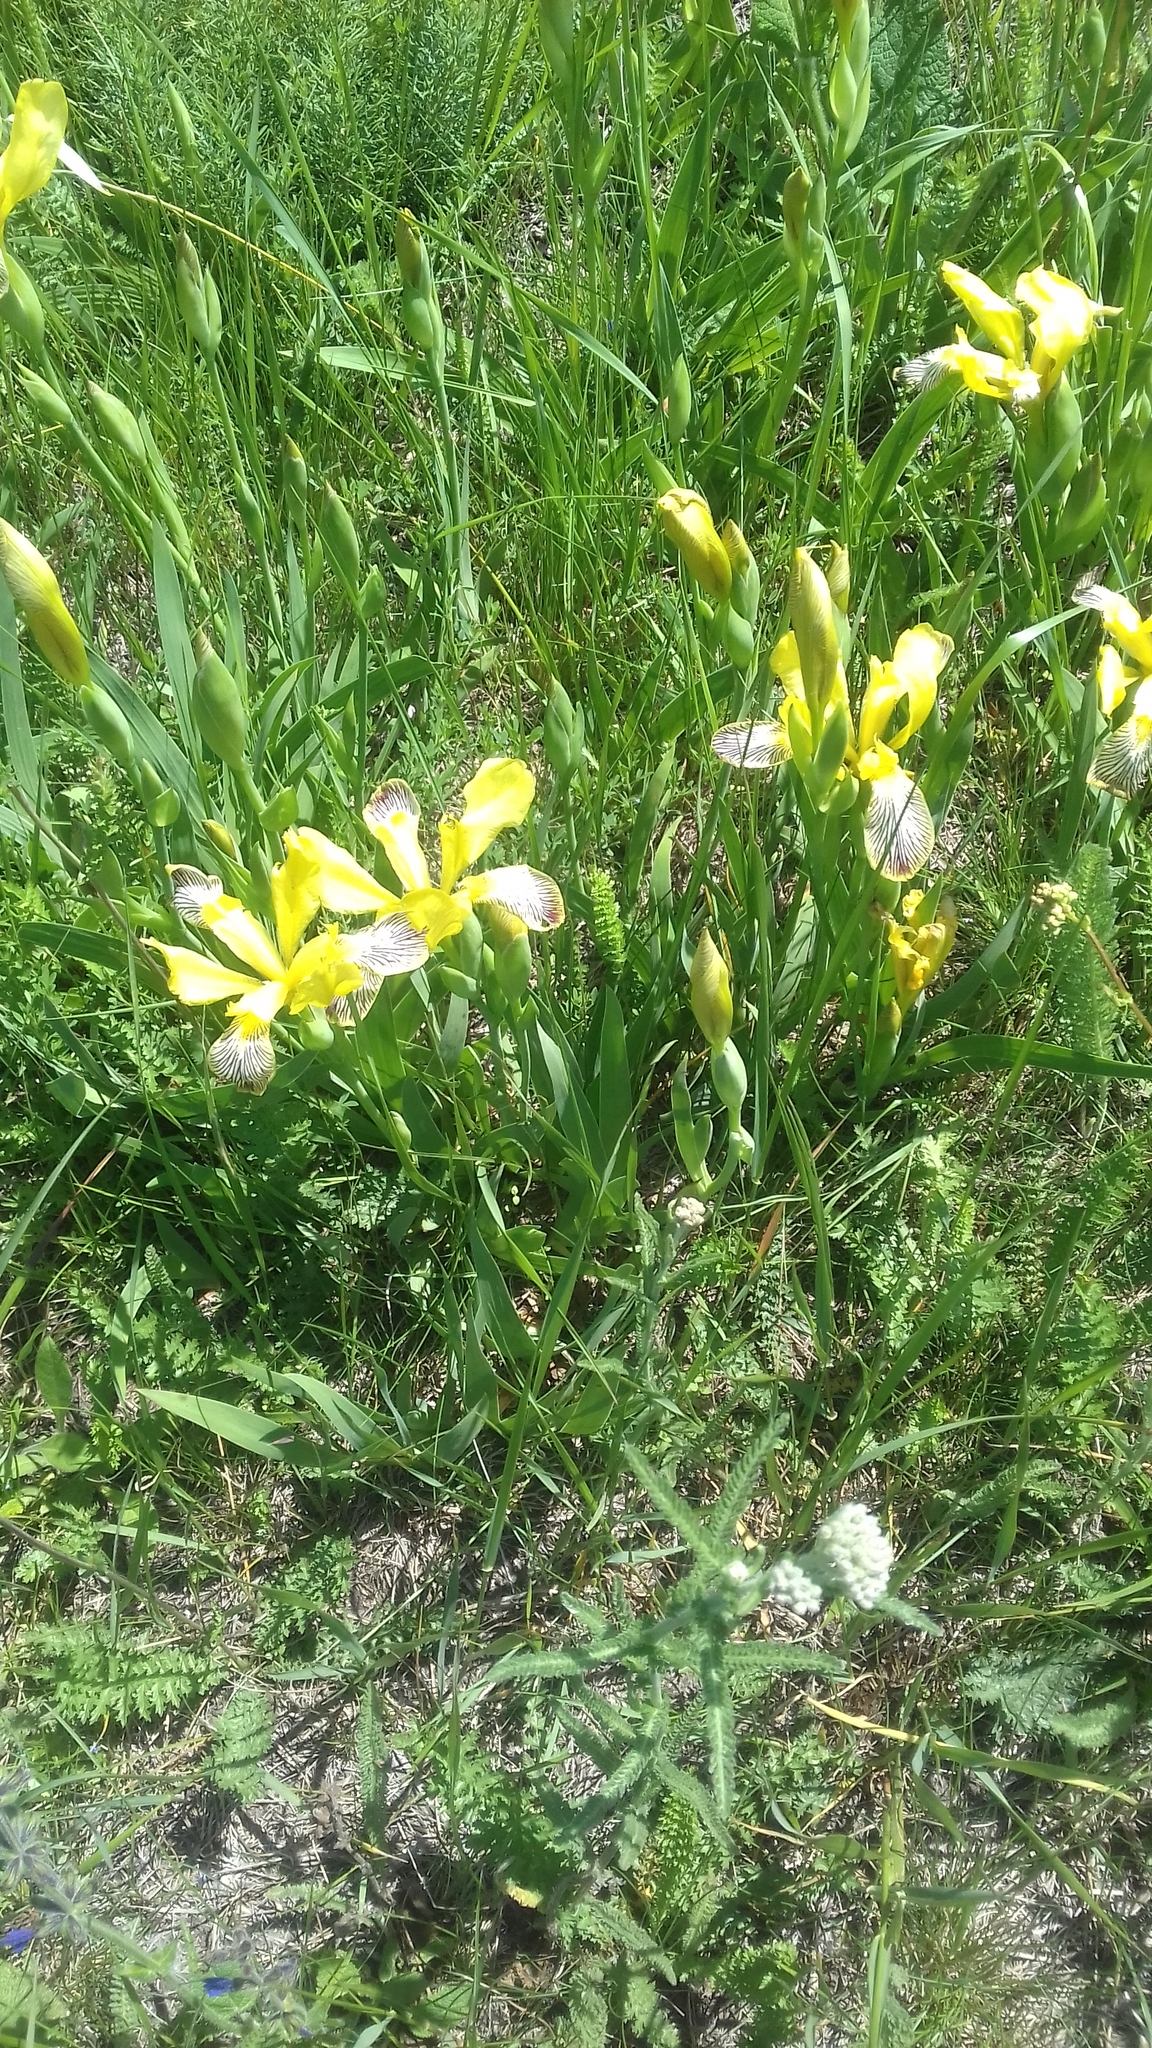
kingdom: Plantae
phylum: Tracheophyta
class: Liliopsida
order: Asparagales
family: Iridaceae
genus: Iris
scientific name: Iris variegata
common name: Hungarian iris
